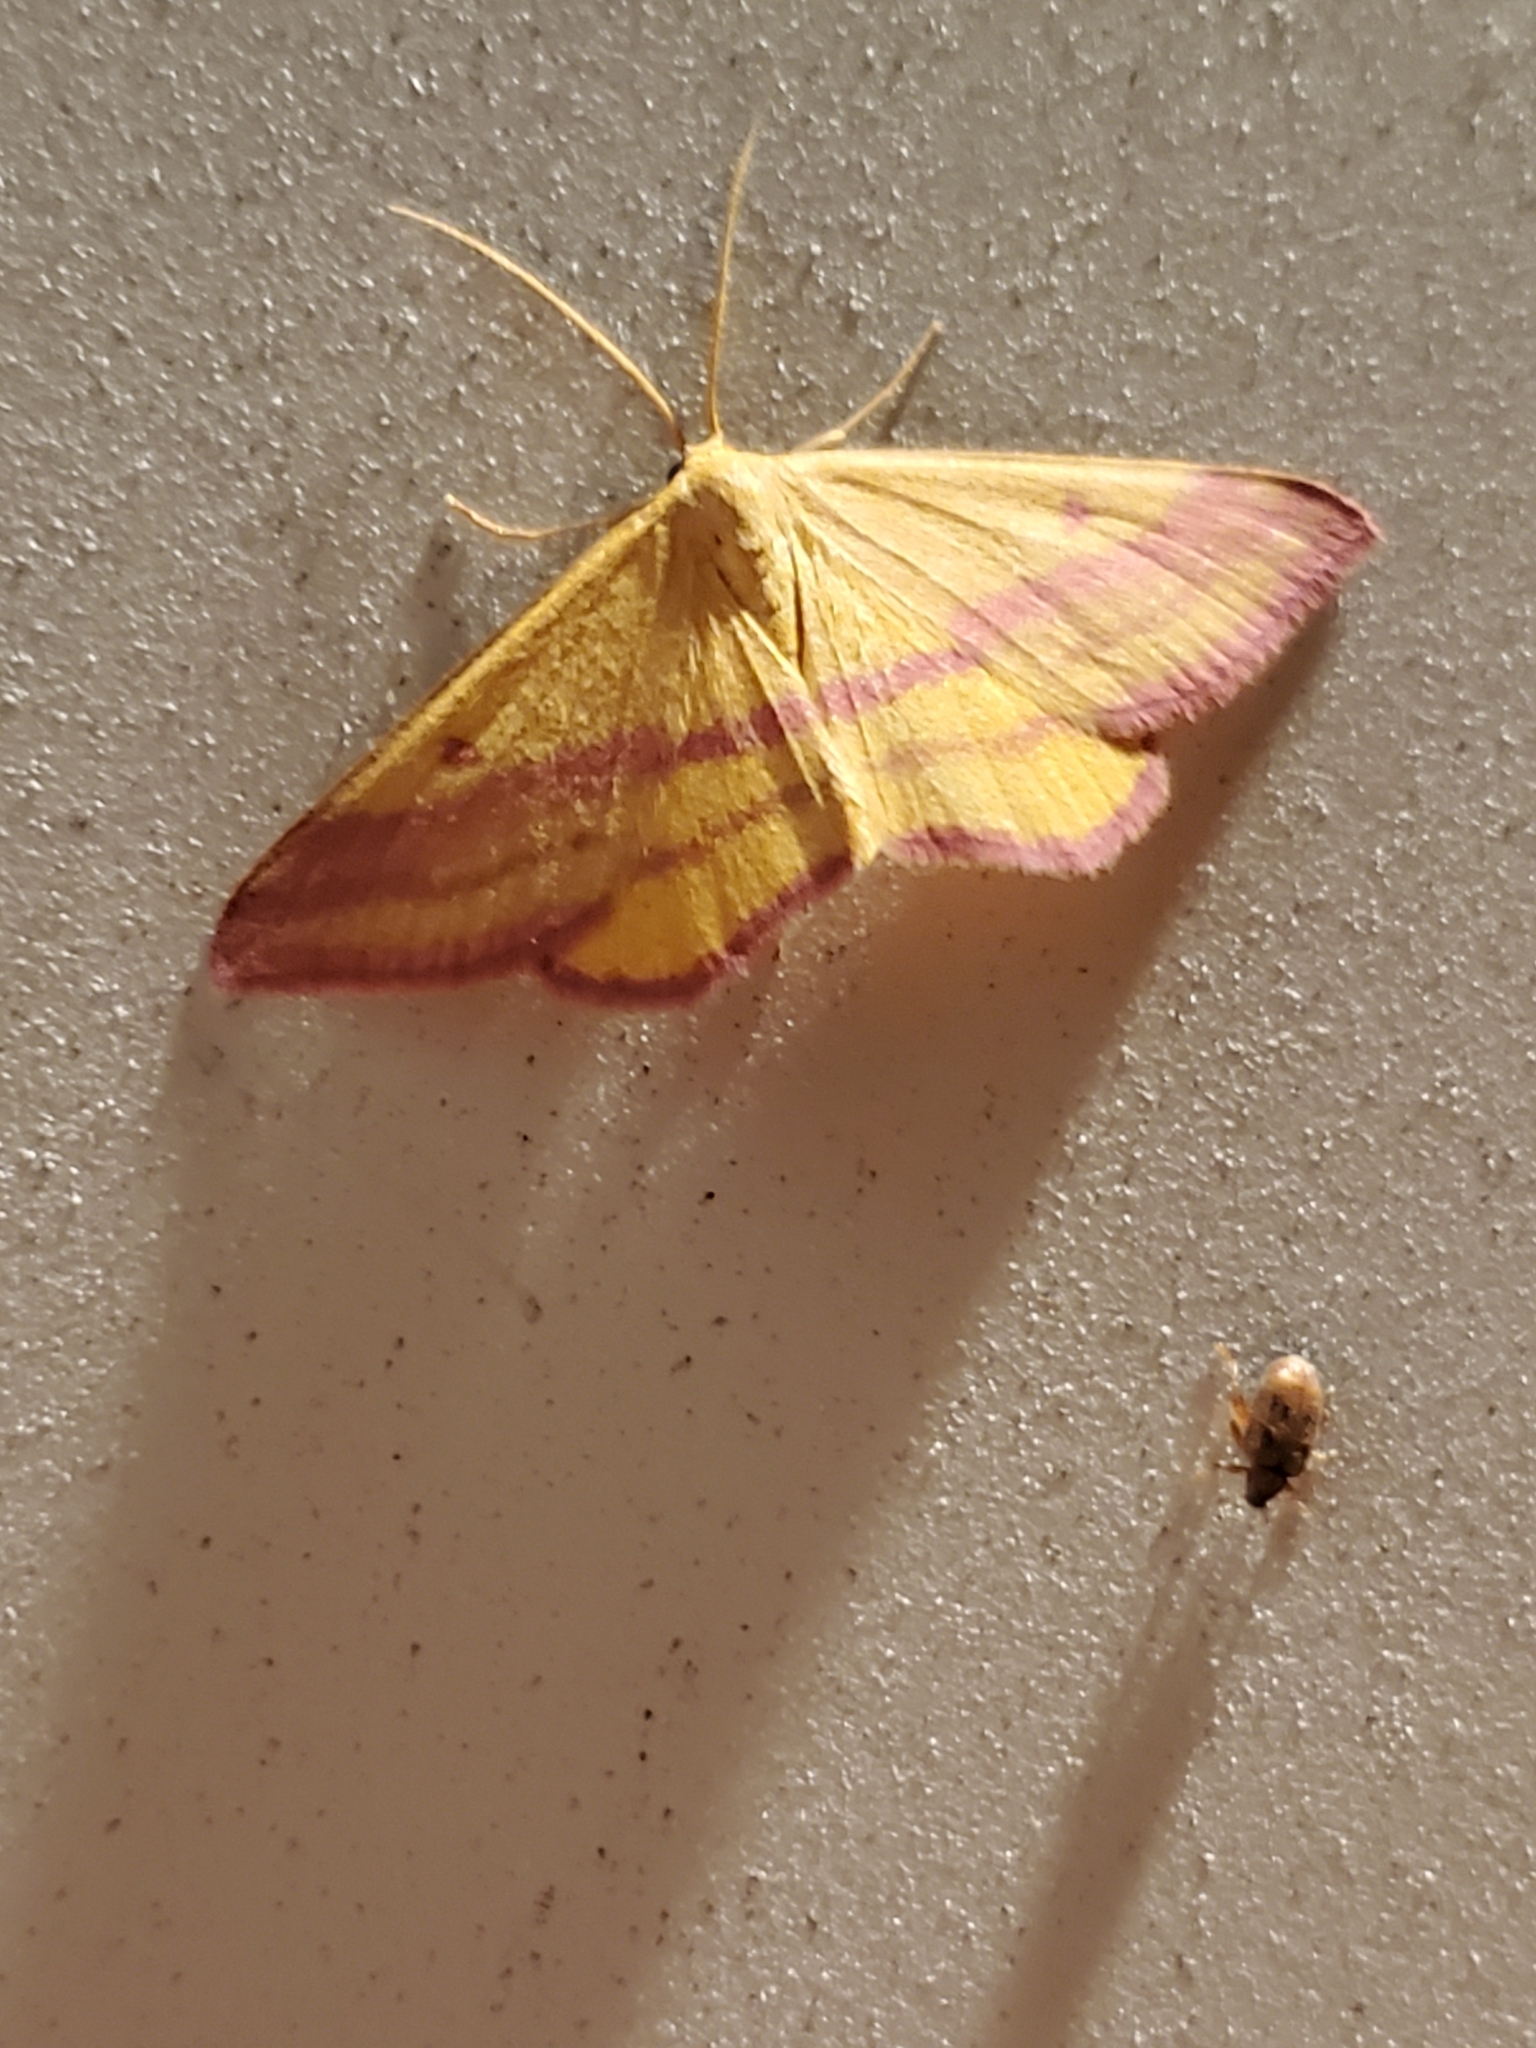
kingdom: Animalia
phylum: Arthropoda
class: Insecta
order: Lepidoptera
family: Geometridae
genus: Haematopis
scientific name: Haematopis grataria
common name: Chickweed geometer
